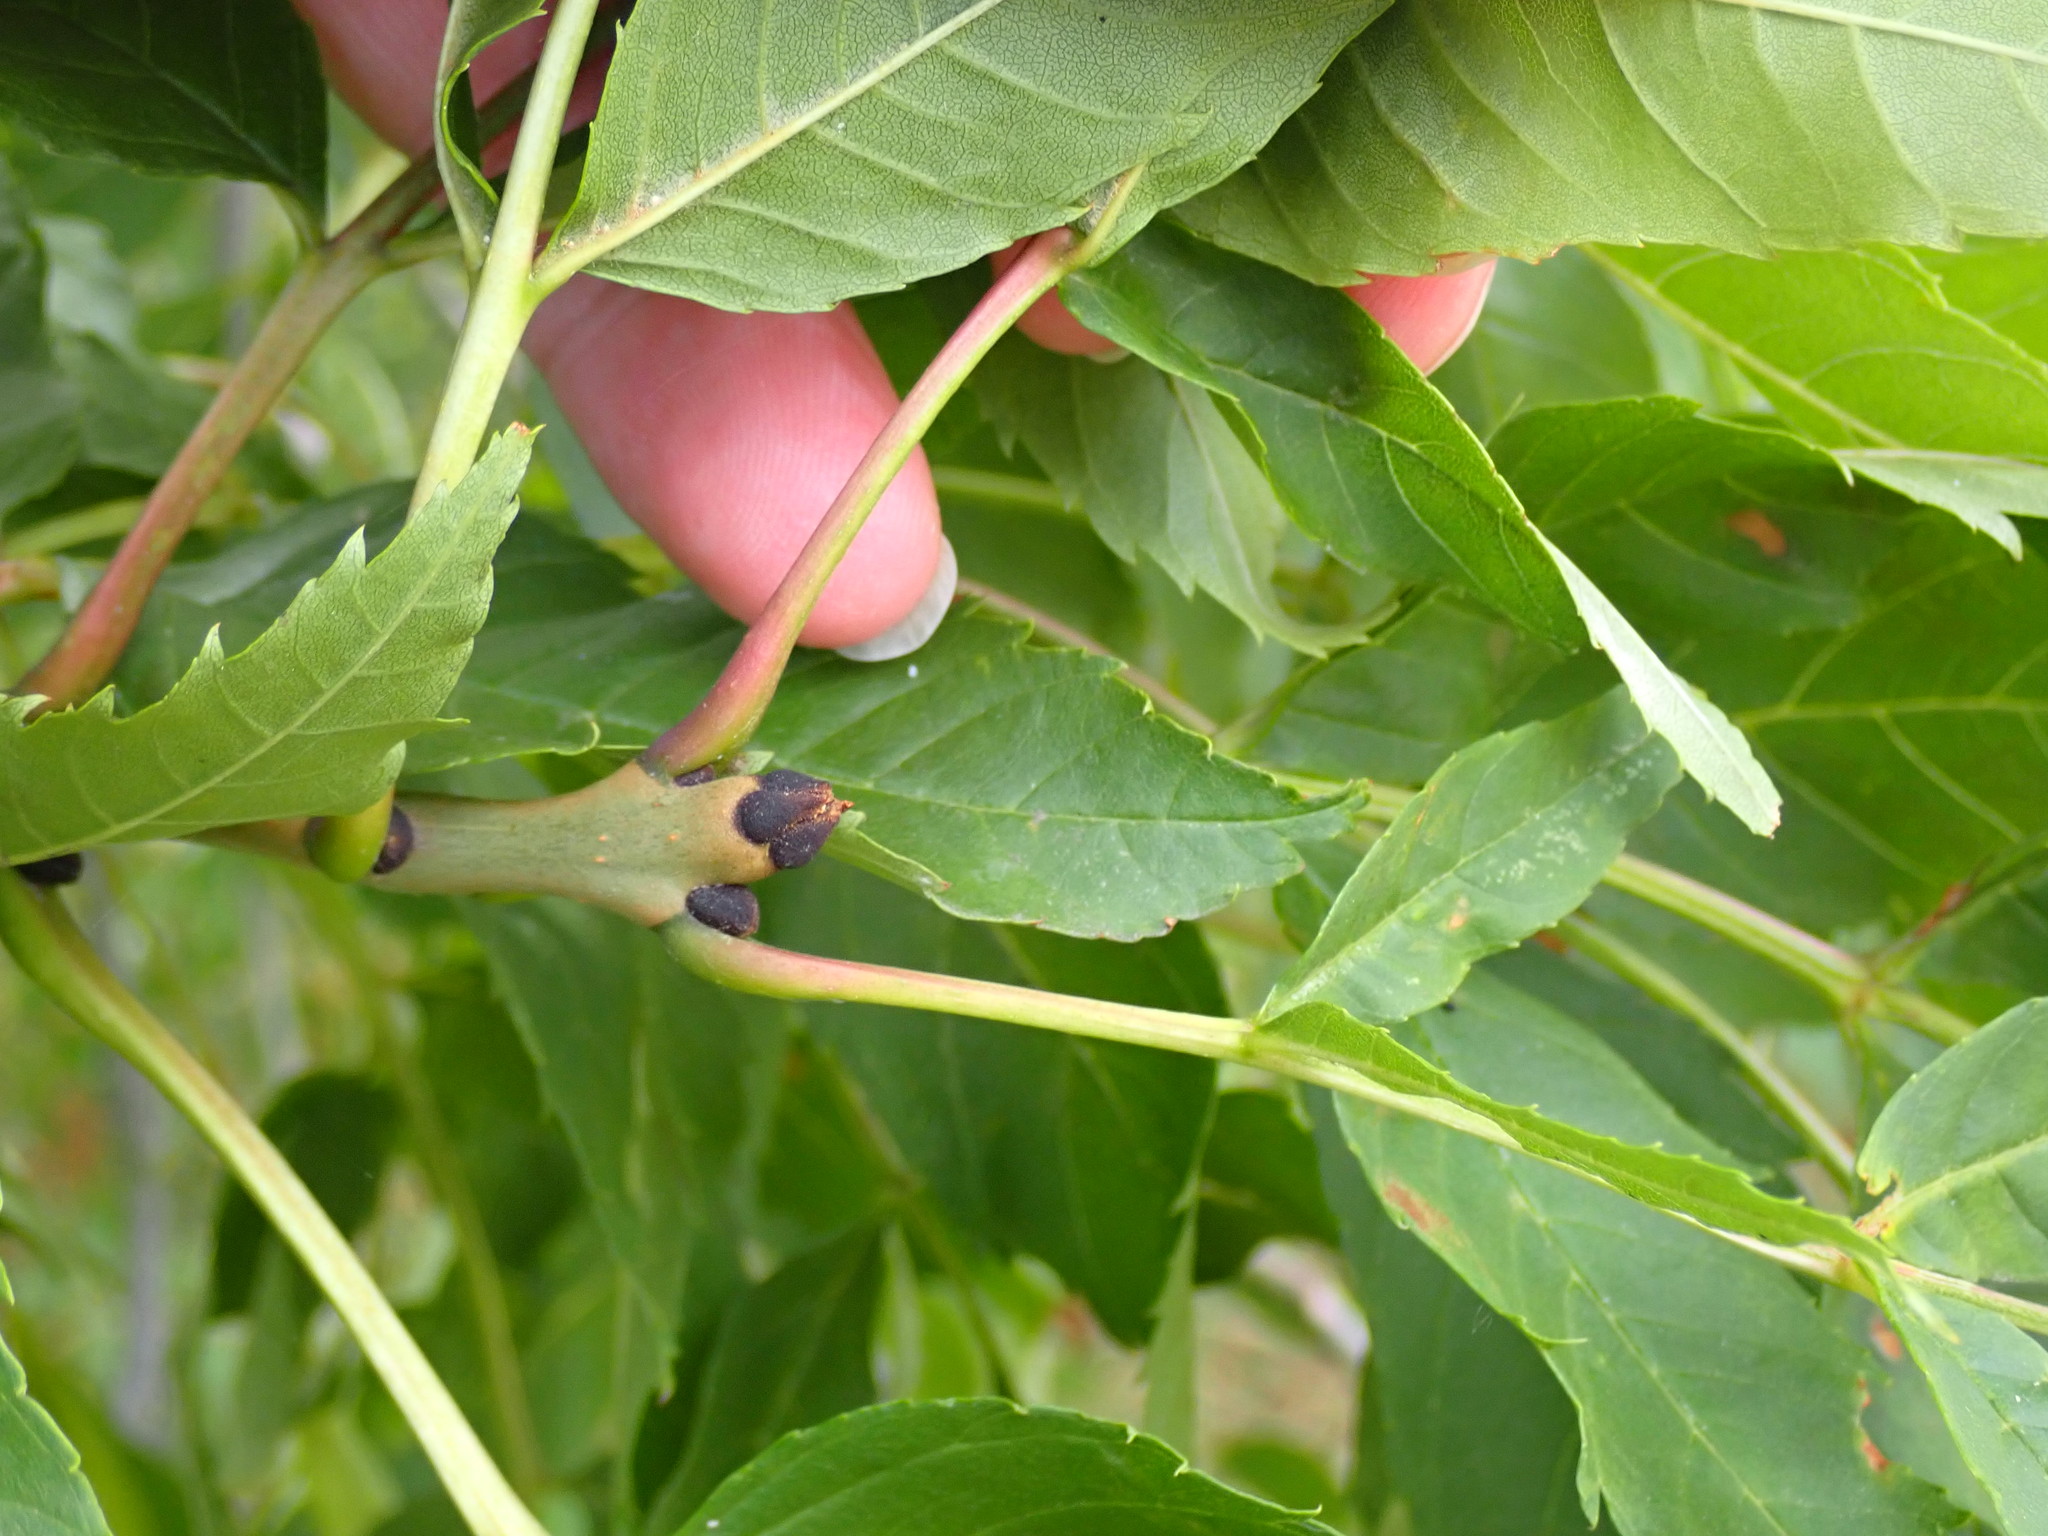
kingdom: Plantae
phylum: Tracheophyta
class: Magnoliopsida
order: Lamiales
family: Oleaceae
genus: Fraxinus
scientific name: Fraxinus excelsior
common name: European ash
